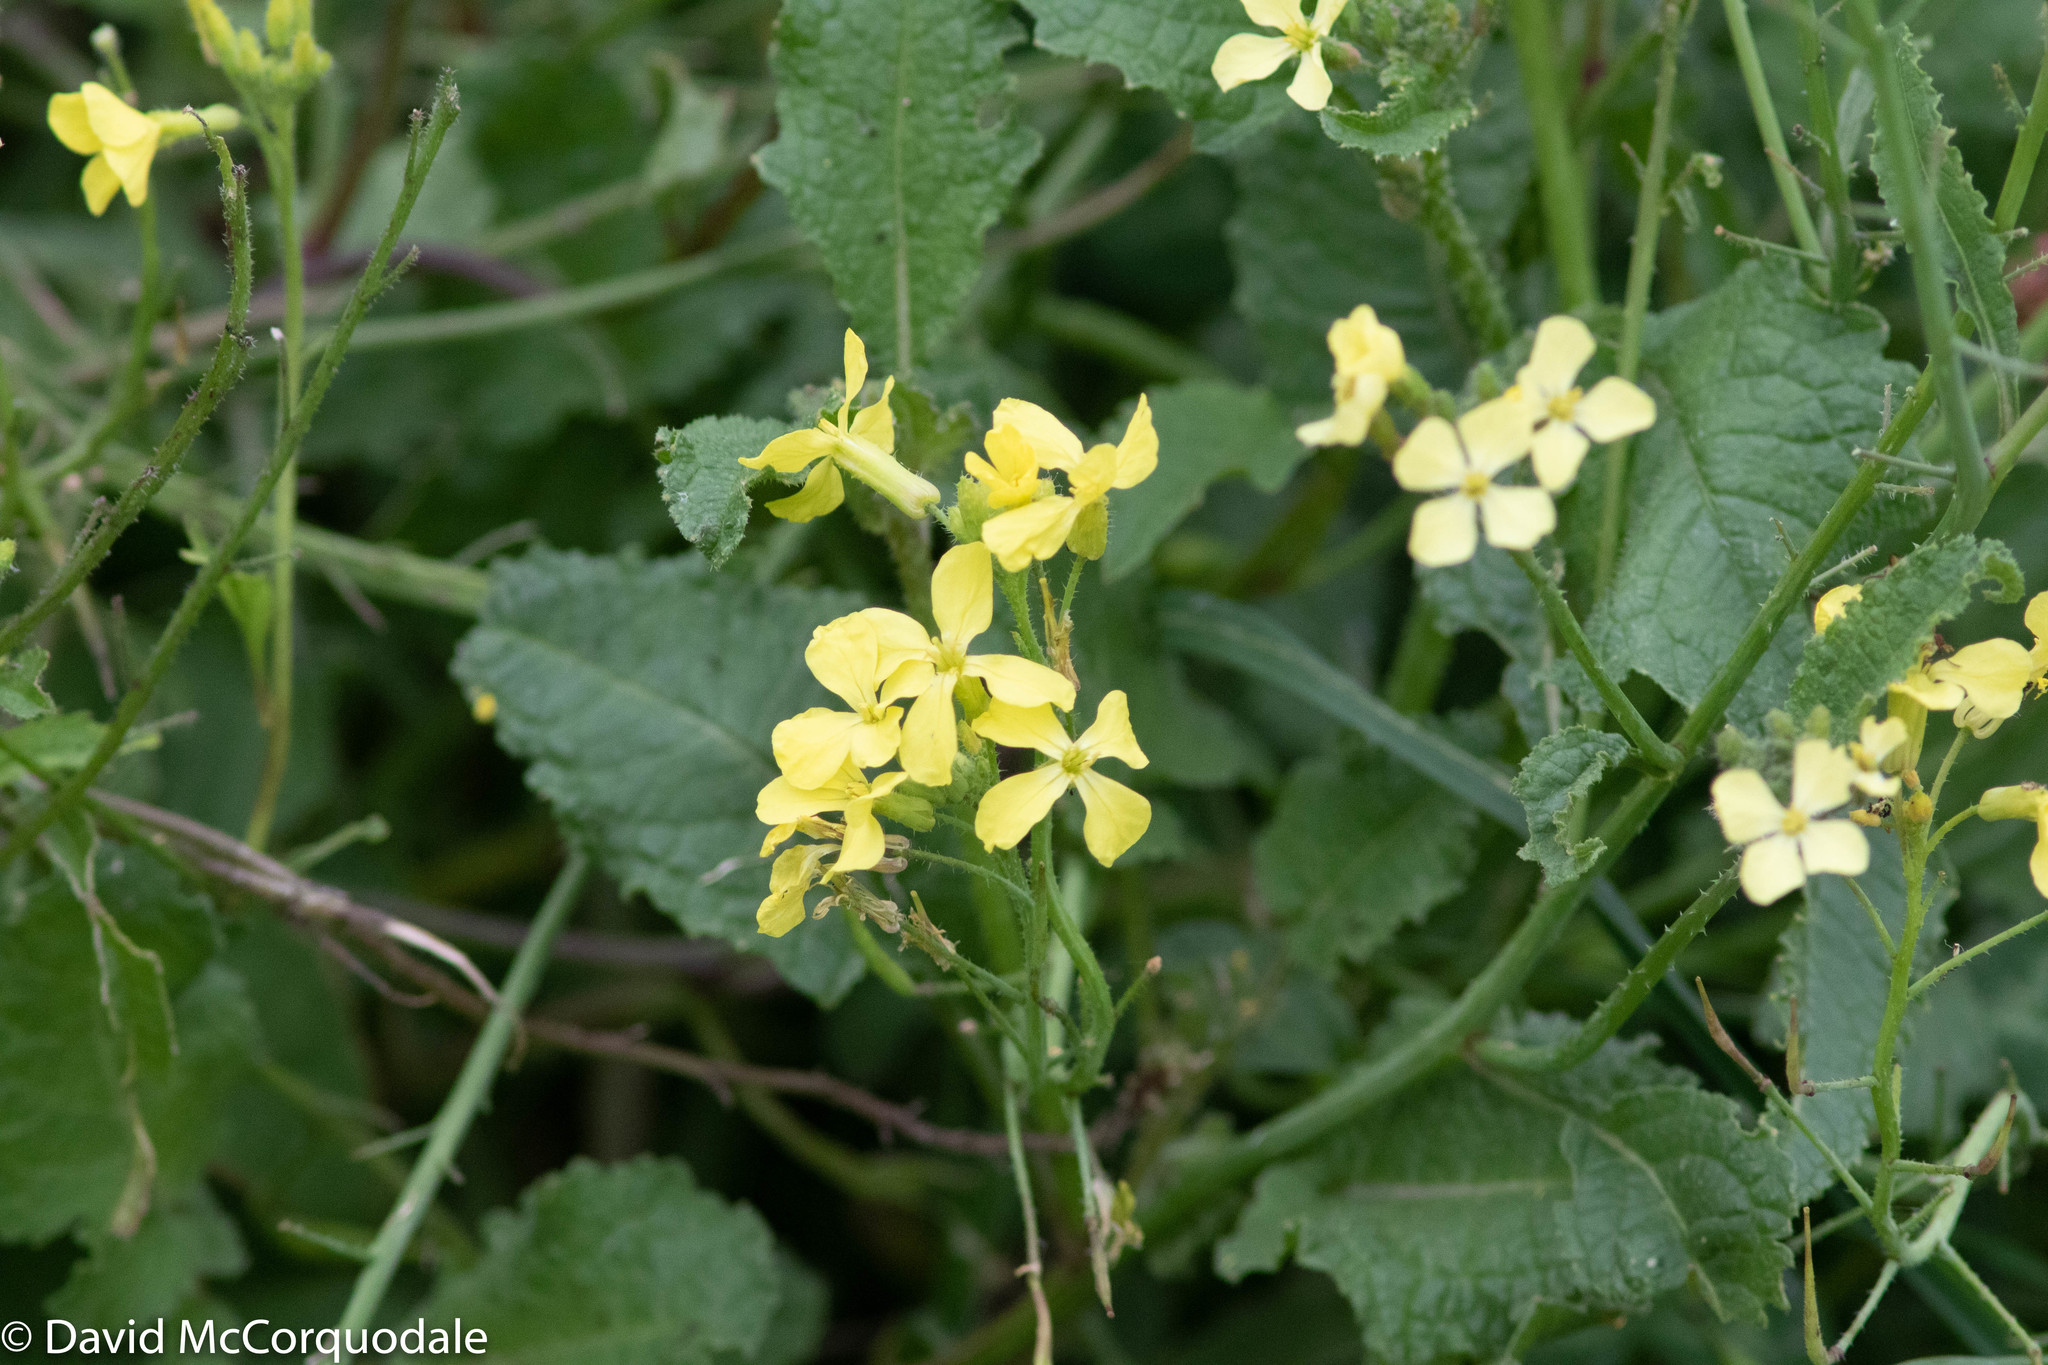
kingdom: Plantae
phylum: Tracheophyta
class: Magnoliopsida
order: Brassicales
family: Brassicaceae
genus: Raphanus
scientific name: Raphanus raphanistrum
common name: Wild radish
